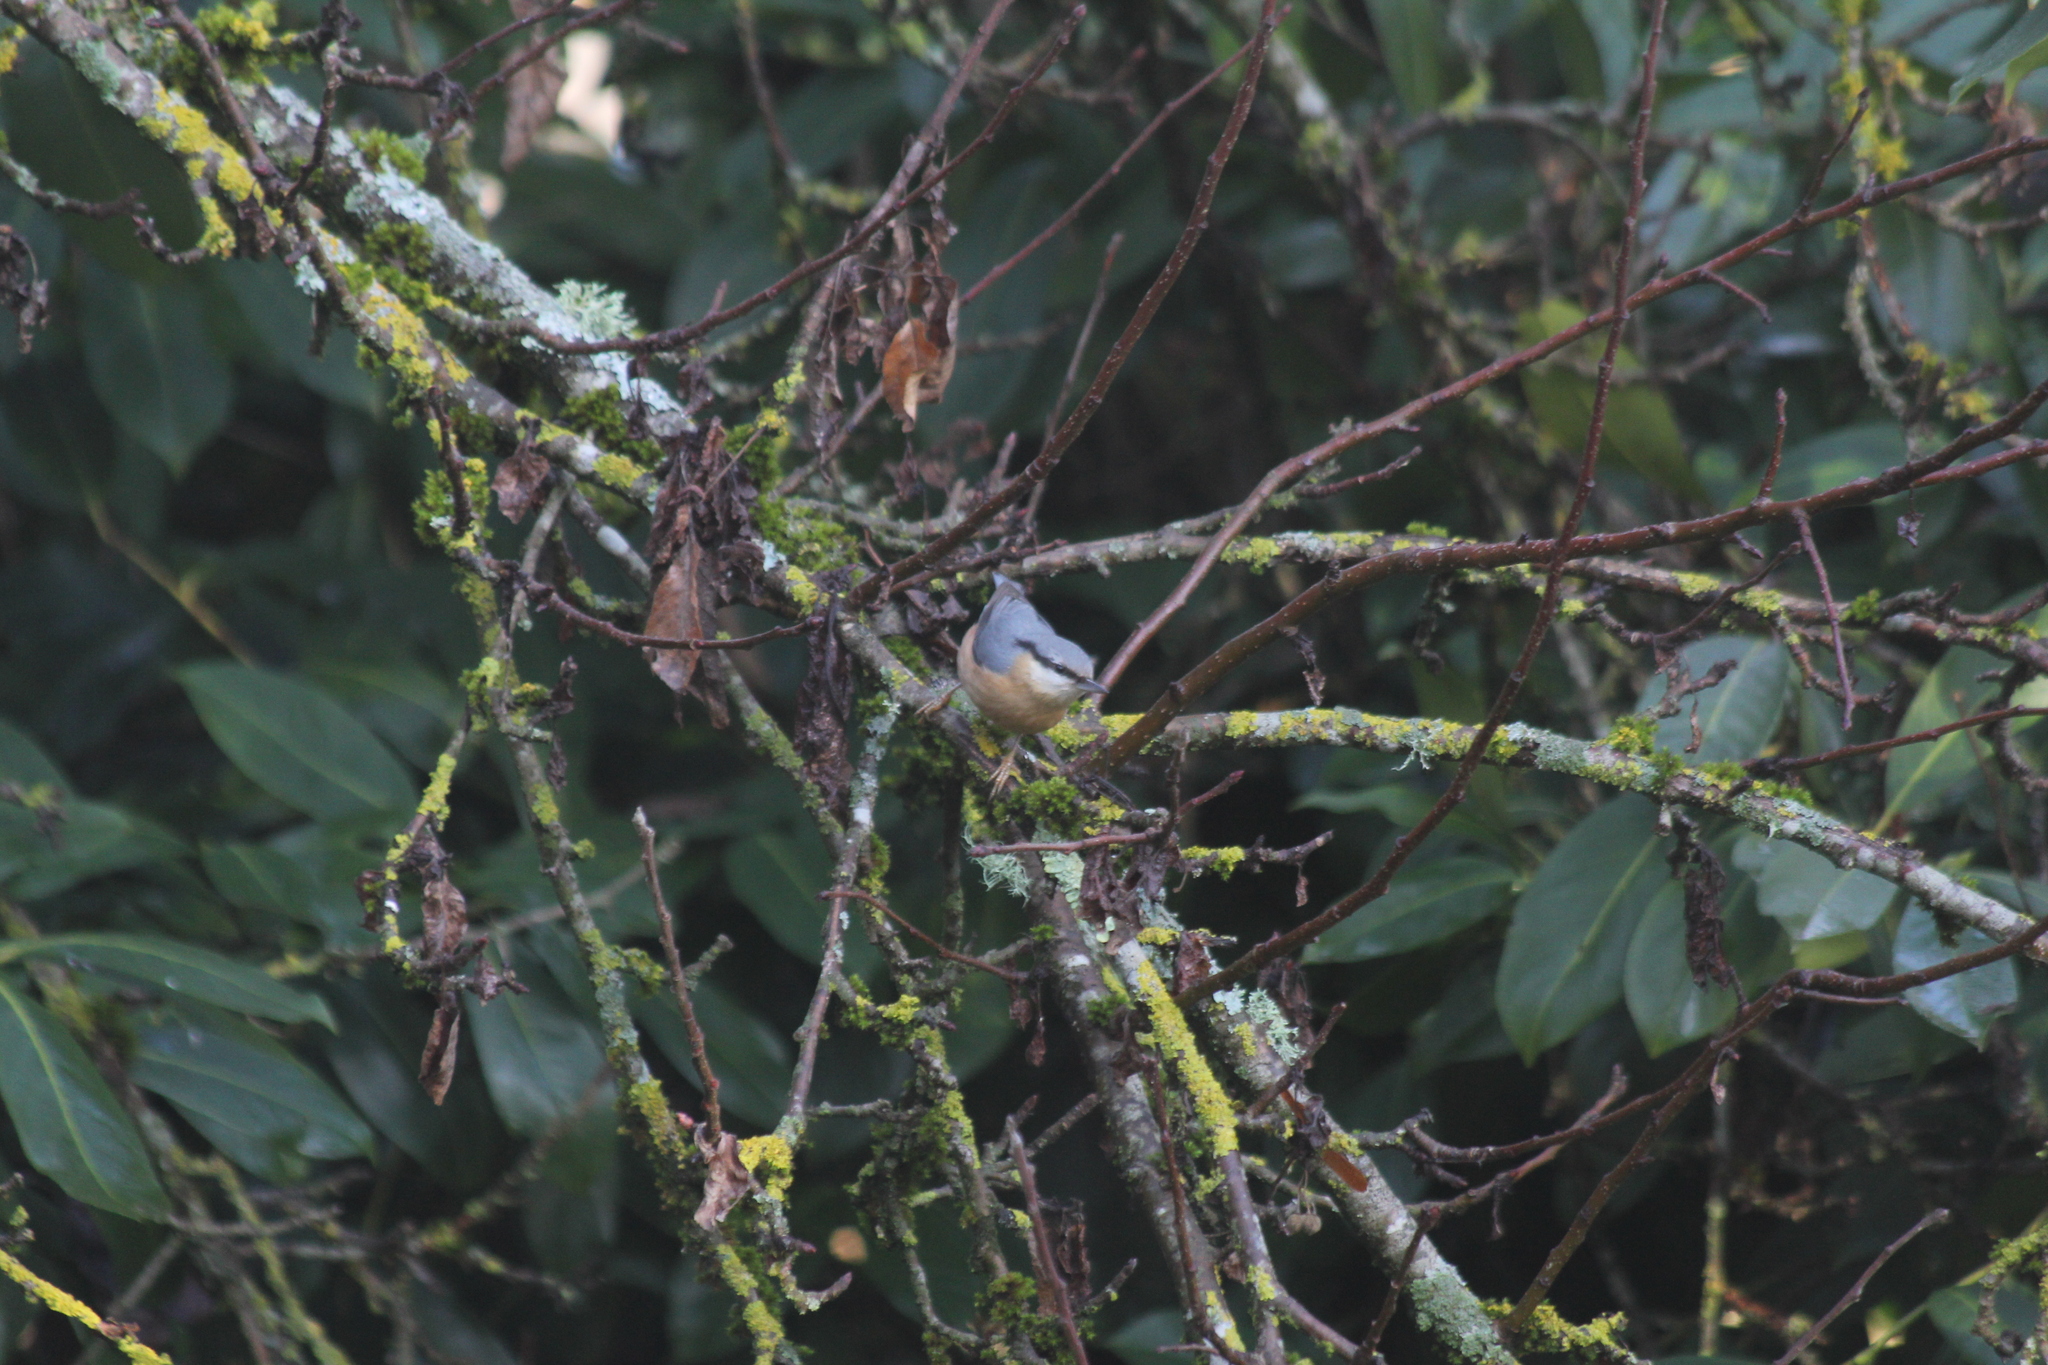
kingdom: Animalia
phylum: Chordata
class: Aves
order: Passeriformes
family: Sittidae
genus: Sitta
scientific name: Sitta europaea
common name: Eurasian nuthatch
